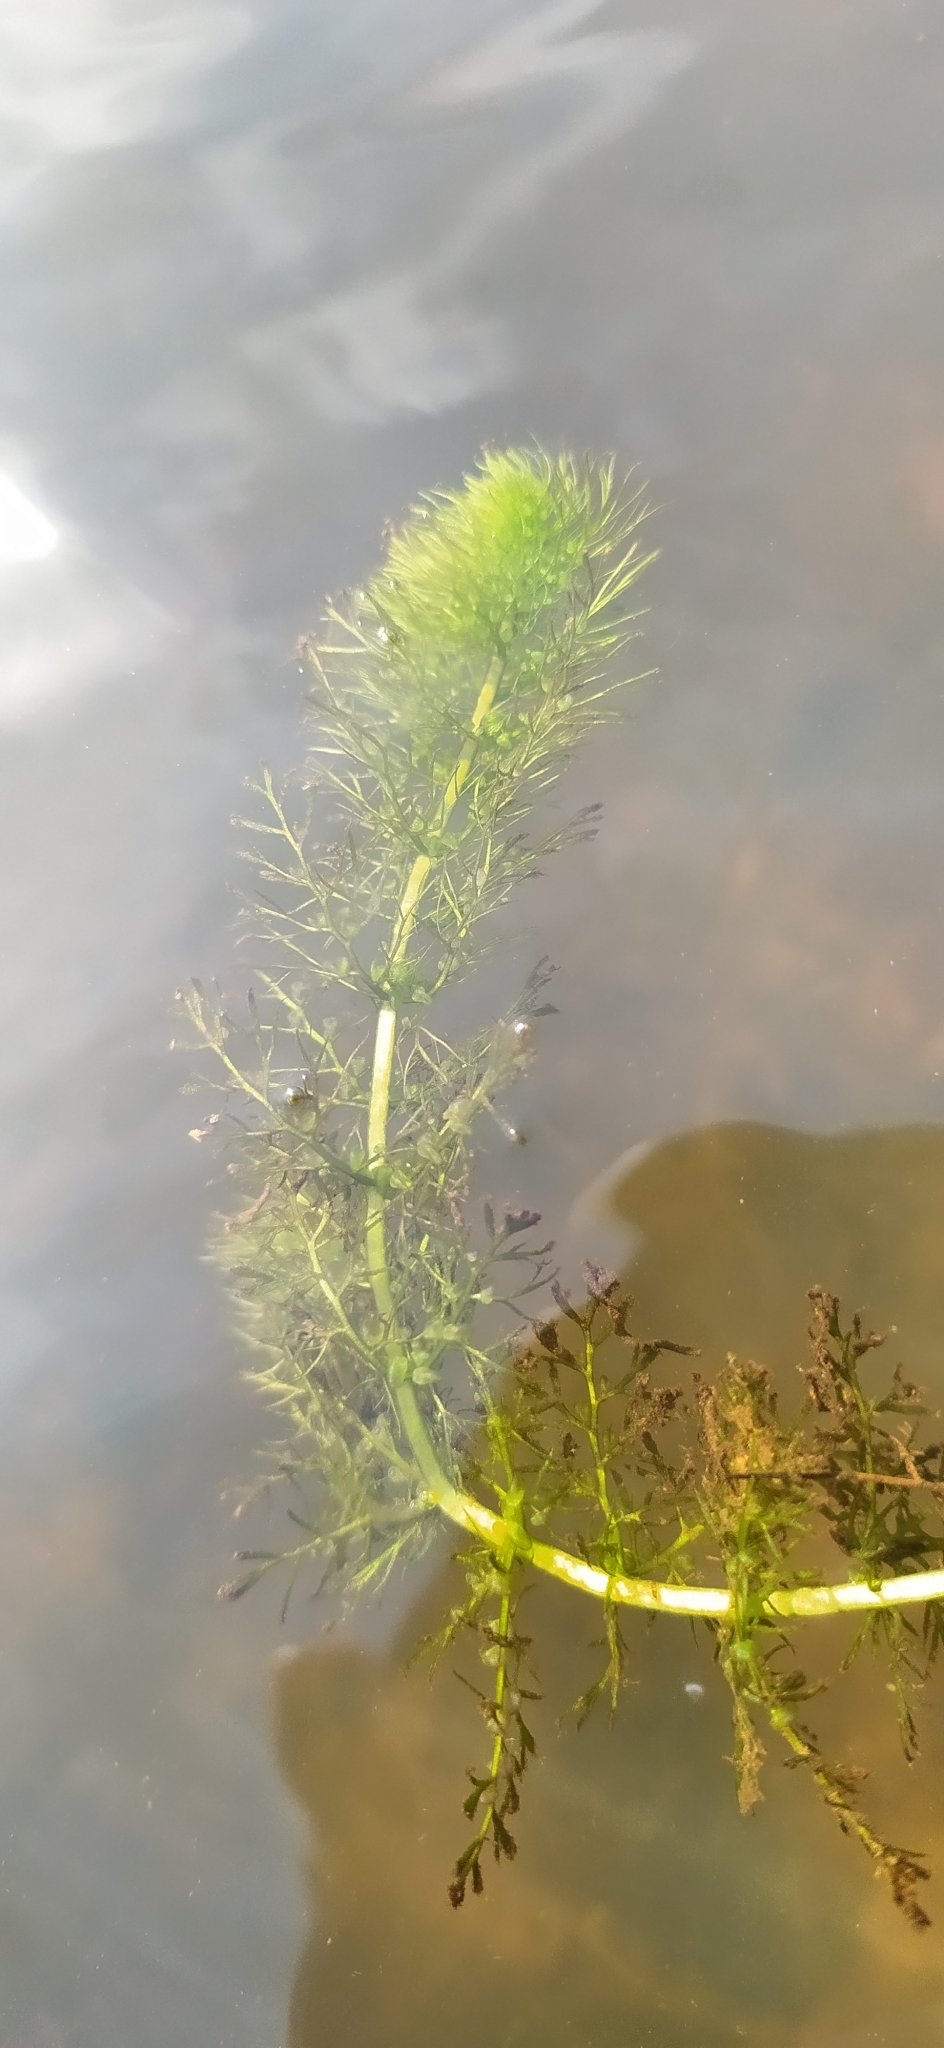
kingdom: Plantae
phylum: Tracheophyta
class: Magnoliopsida
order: Lamiales
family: Lentibulariaceae
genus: Utricularia
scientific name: Utricularia vulgaris
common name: Greater bladderwort
